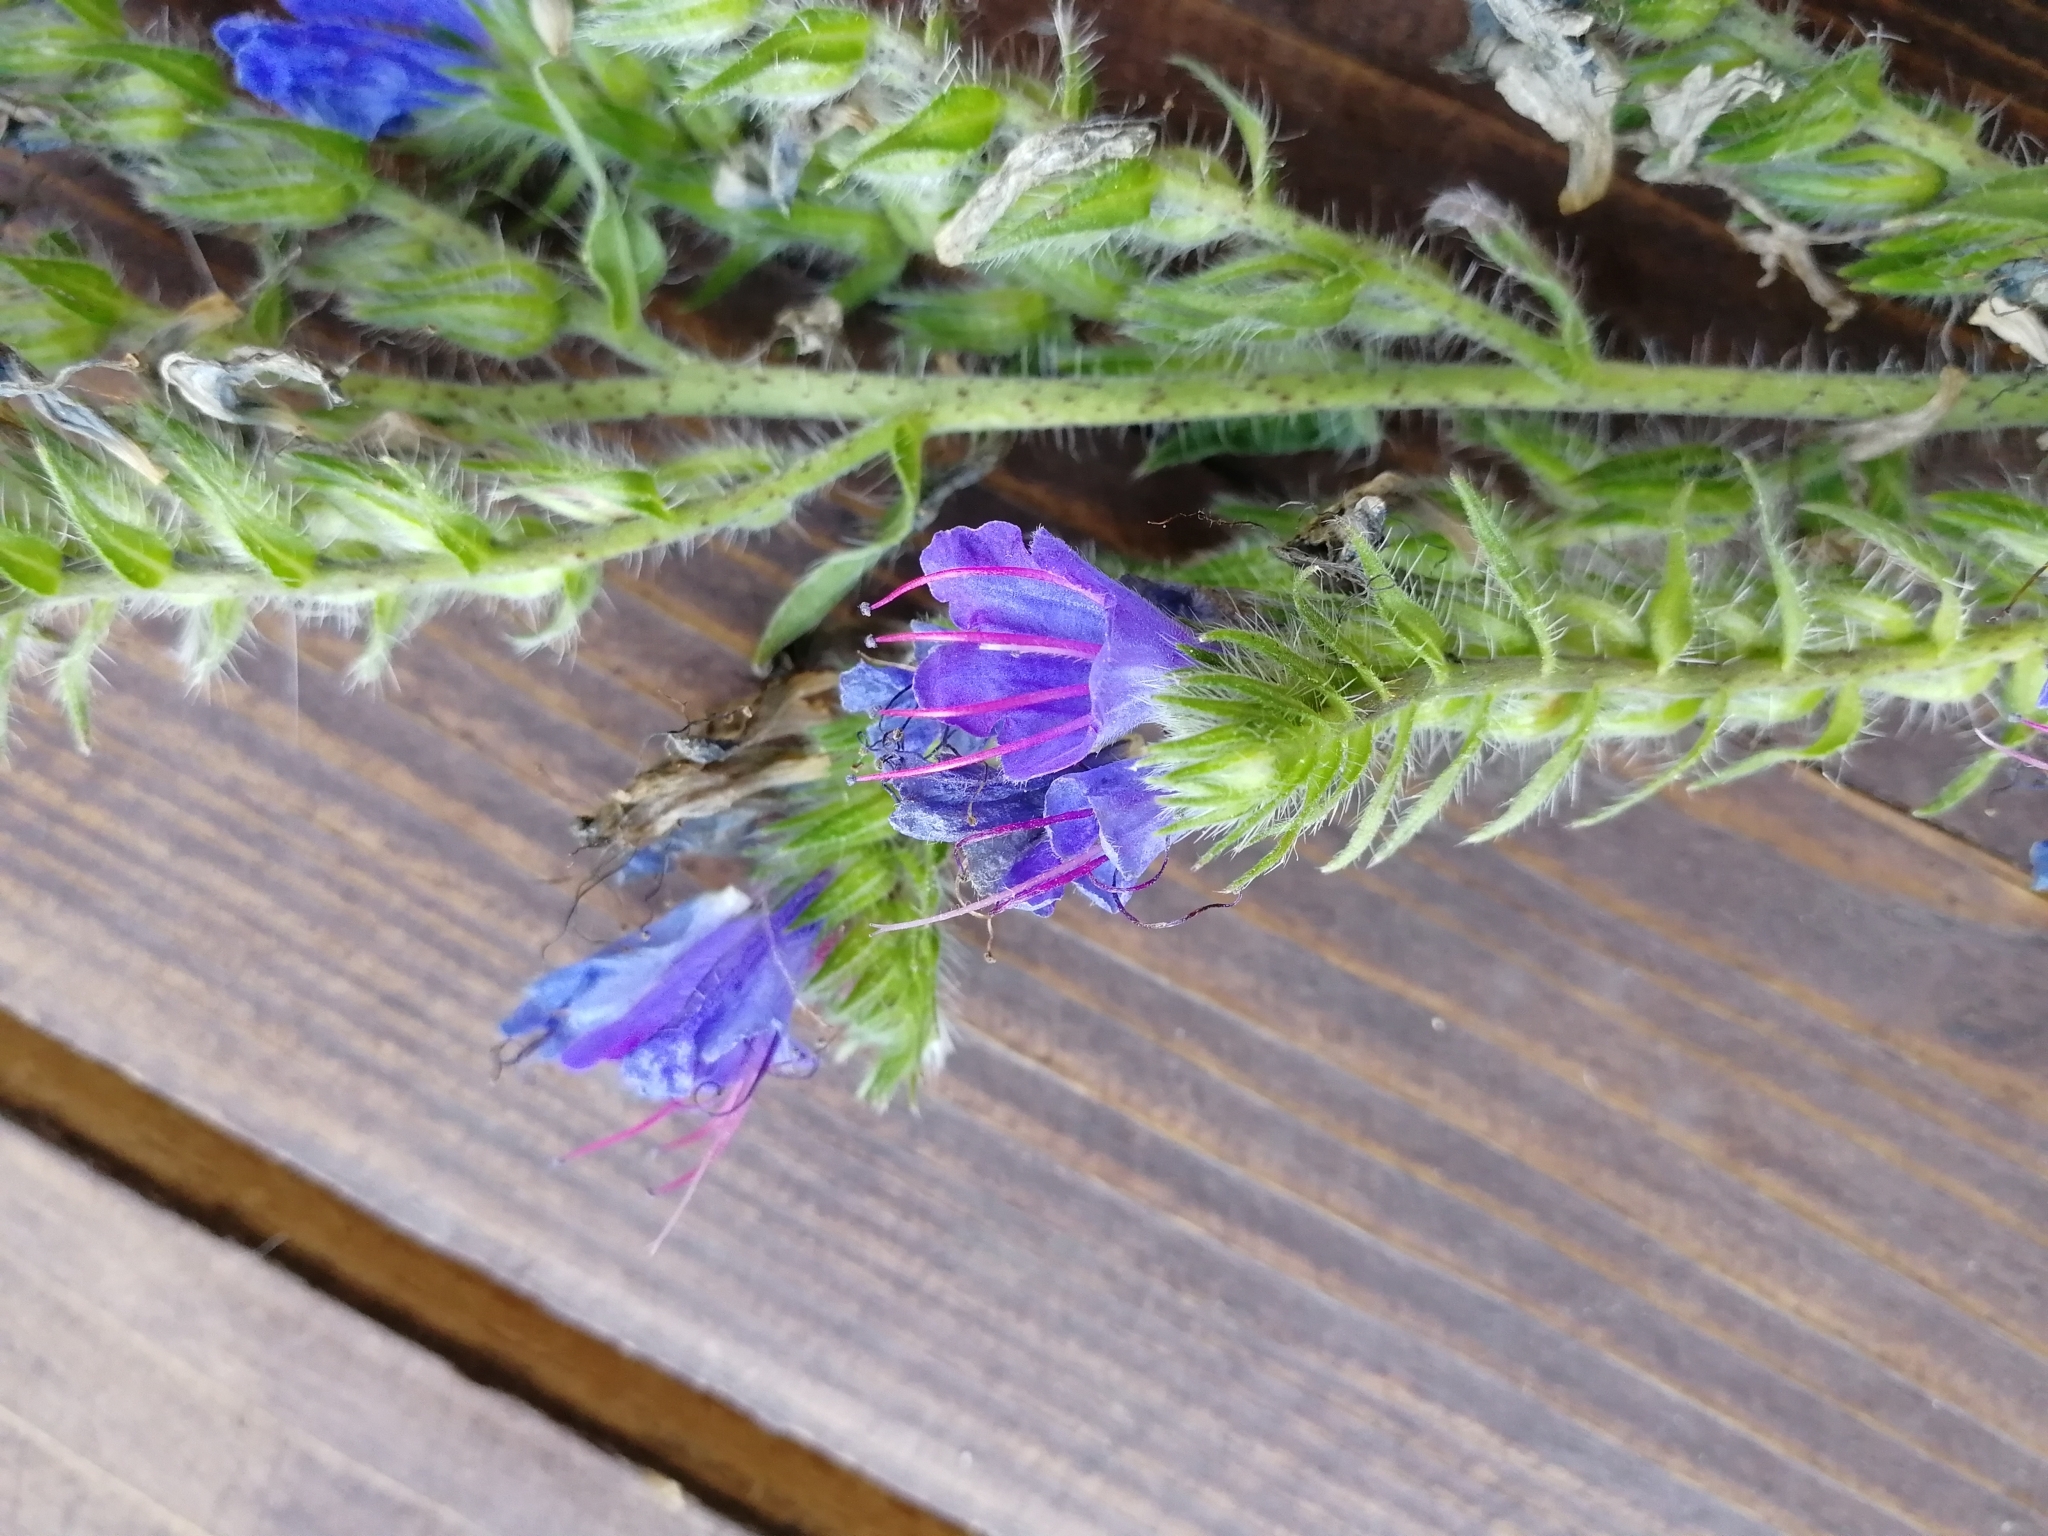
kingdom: Plantae
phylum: Tracheophyta
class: Magnoliopsida
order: Boraginales
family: Boraginaceae
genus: Echium
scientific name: Echium vulgare
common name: Common viper's bugloss
